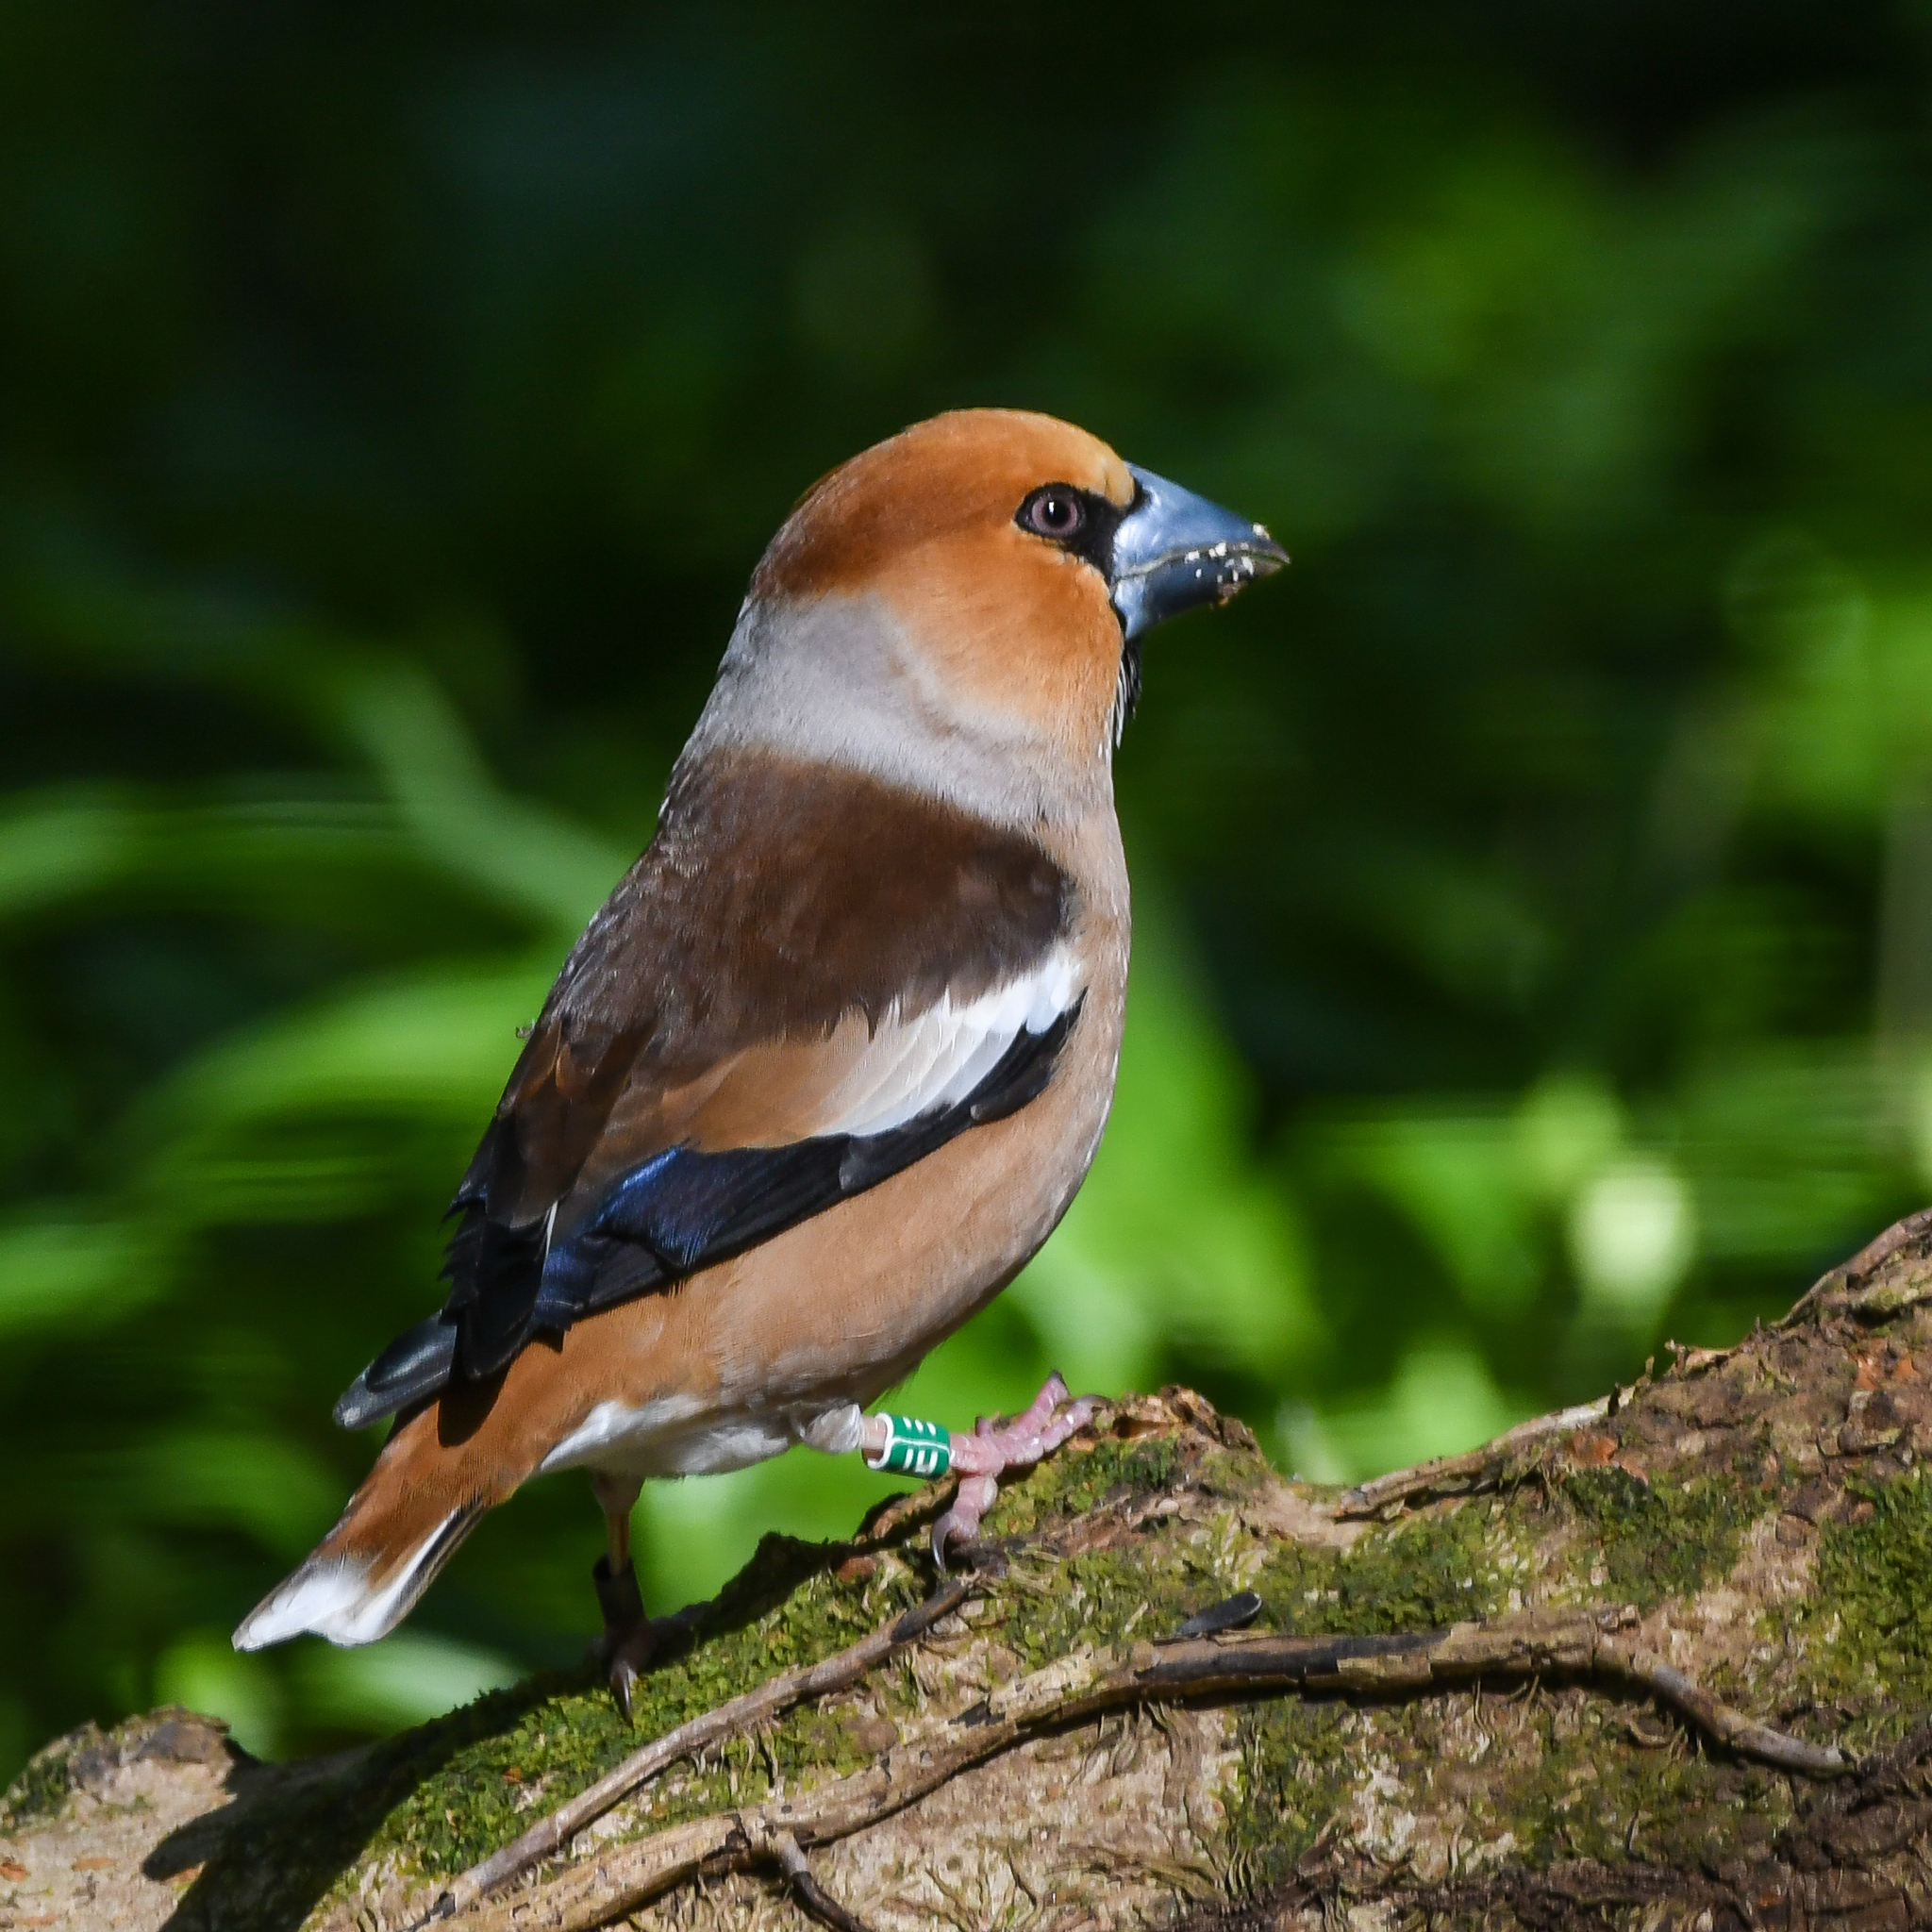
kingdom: Animalia
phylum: Chordata
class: Aves
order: Passeriformes
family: Fringillidae
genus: Coccothraustes
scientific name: Coccothraustes coccothraustes
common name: Hawfinch
